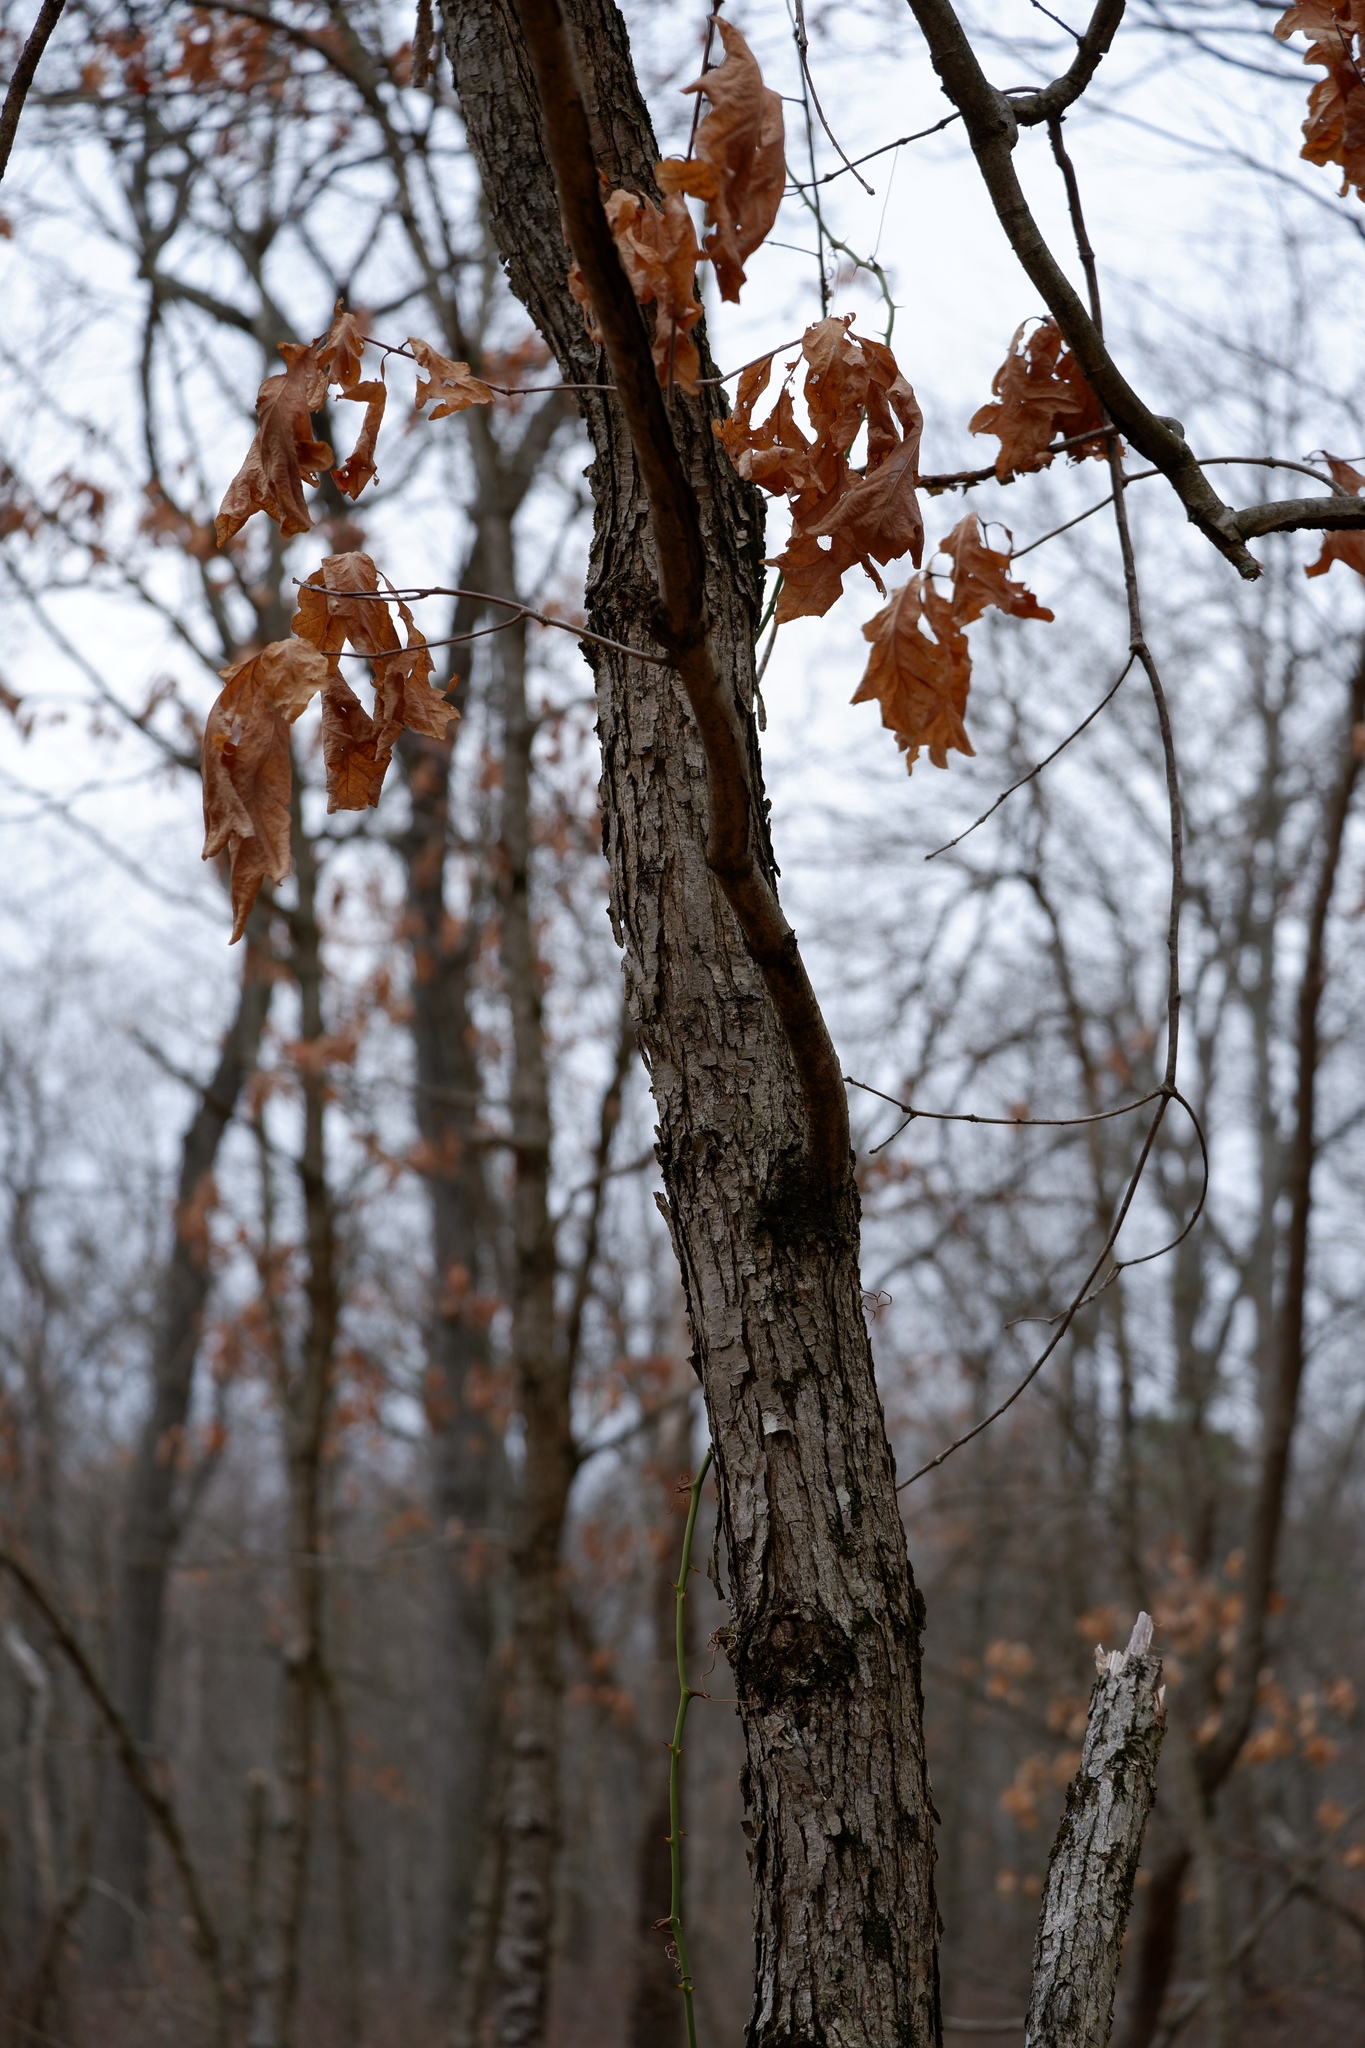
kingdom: Plantae
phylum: Tracheophyta
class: Magnoliopsida
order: Fagales
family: Fagaceae
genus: Quercus
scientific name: Quercus alba
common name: White oak
